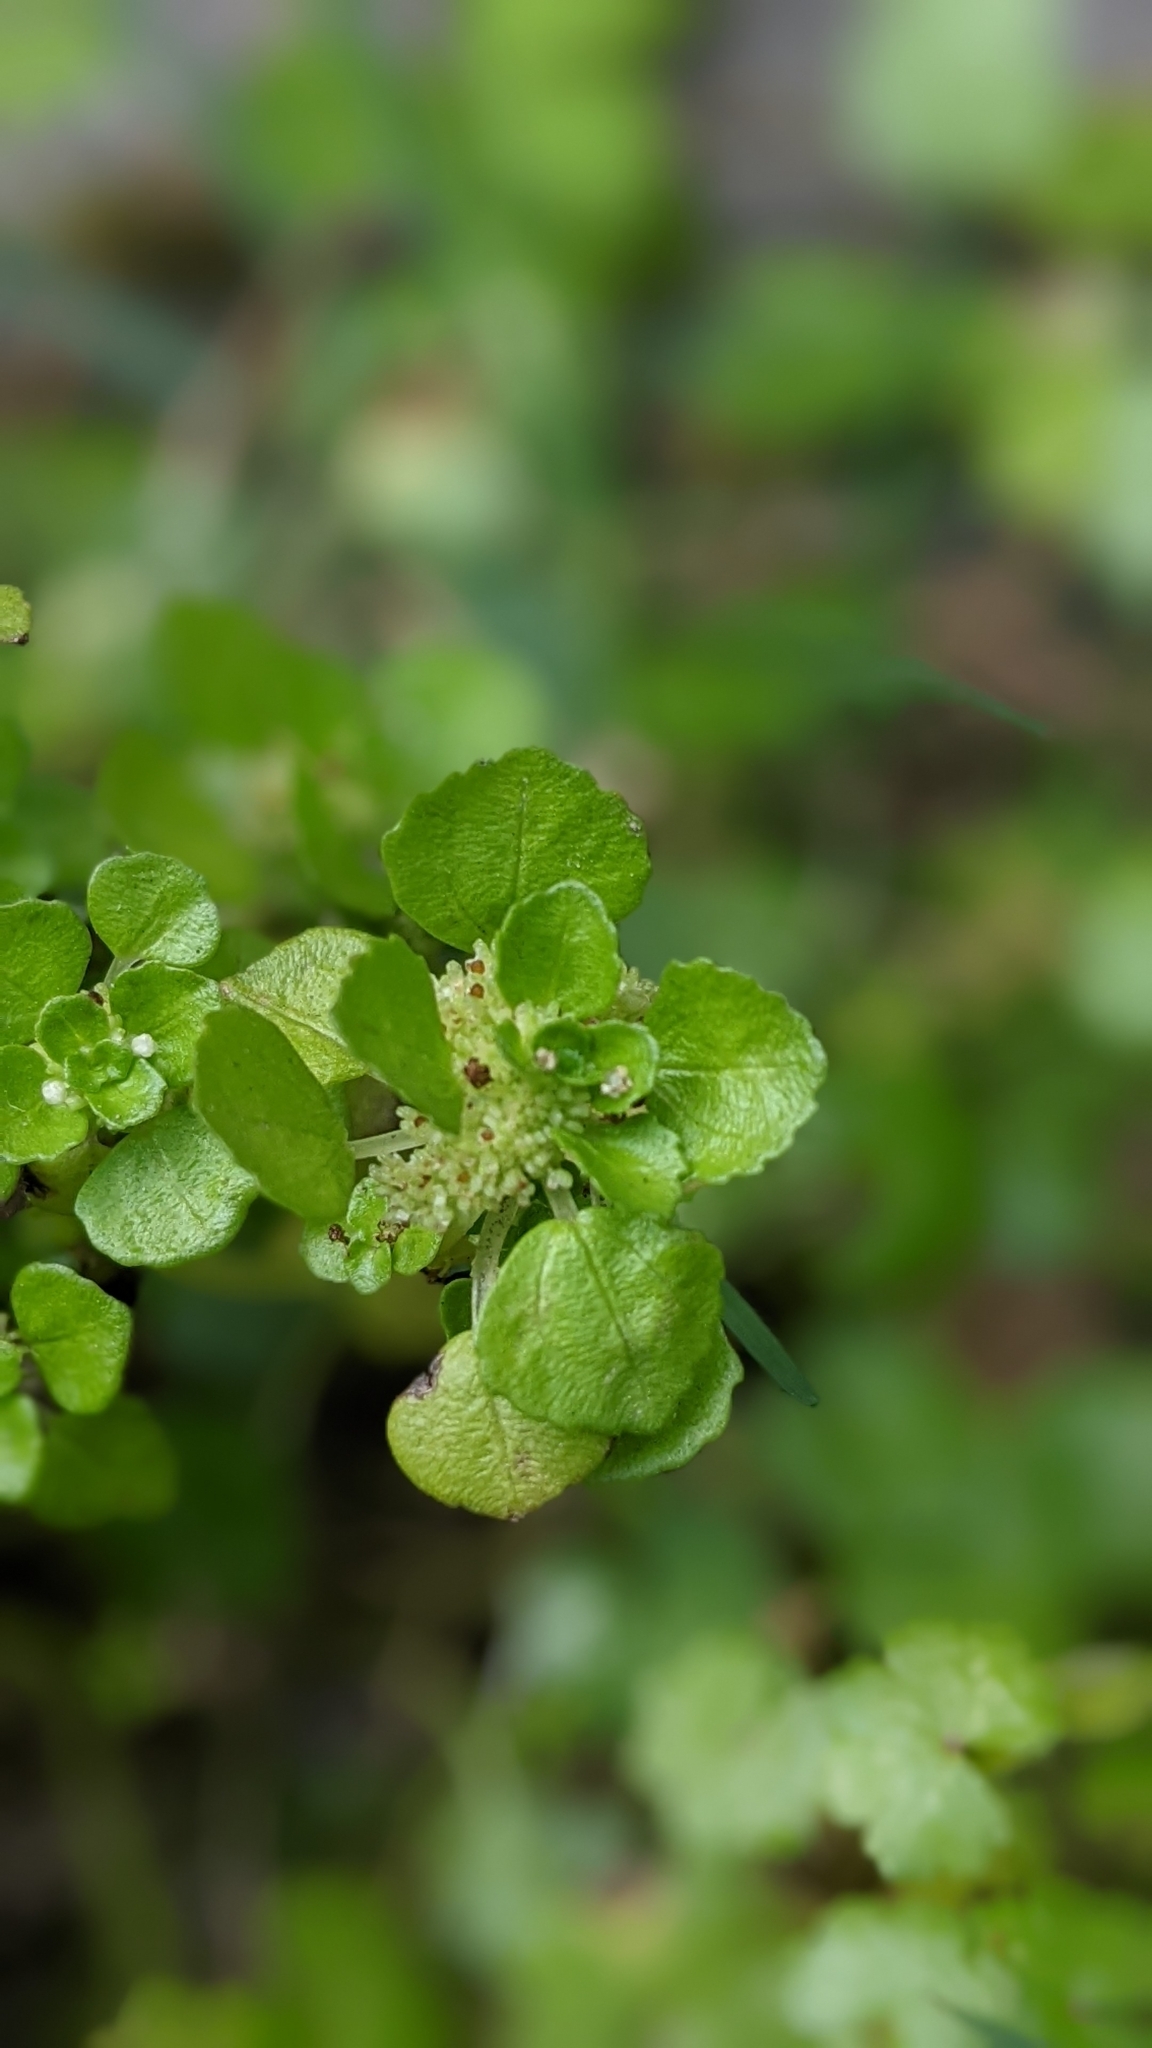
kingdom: Plantae
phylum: Tracheophyta
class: Magnoliopsida
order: Rosales
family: Urticaceae
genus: Pilea
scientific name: Pilea peploides
